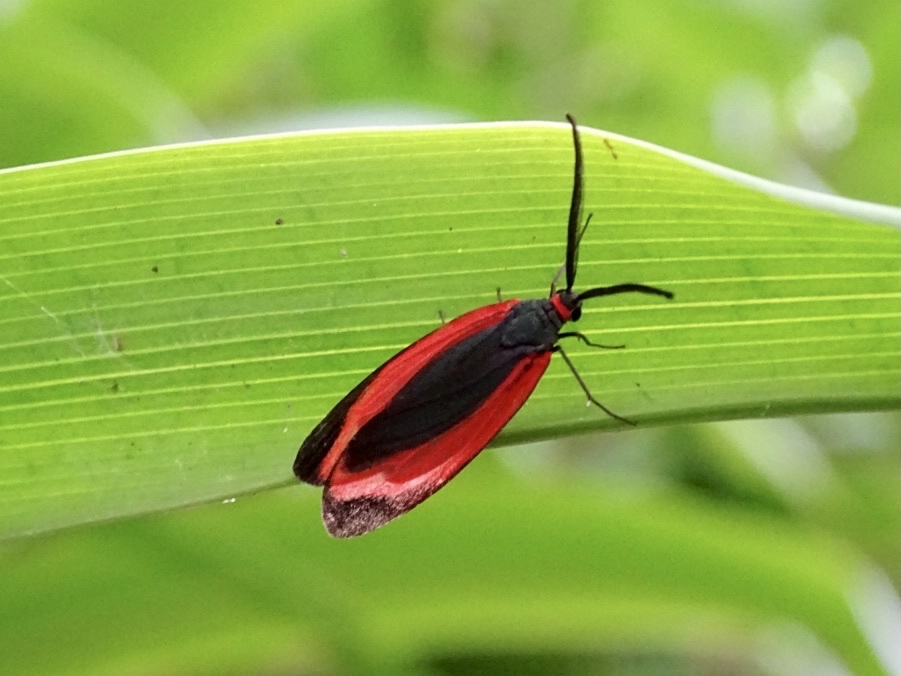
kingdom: Animalia
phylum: Arthropoda
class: Insecta
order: Lepidoptera
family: Zygaenidae
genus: Retina
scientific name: Retina rubrivitta
